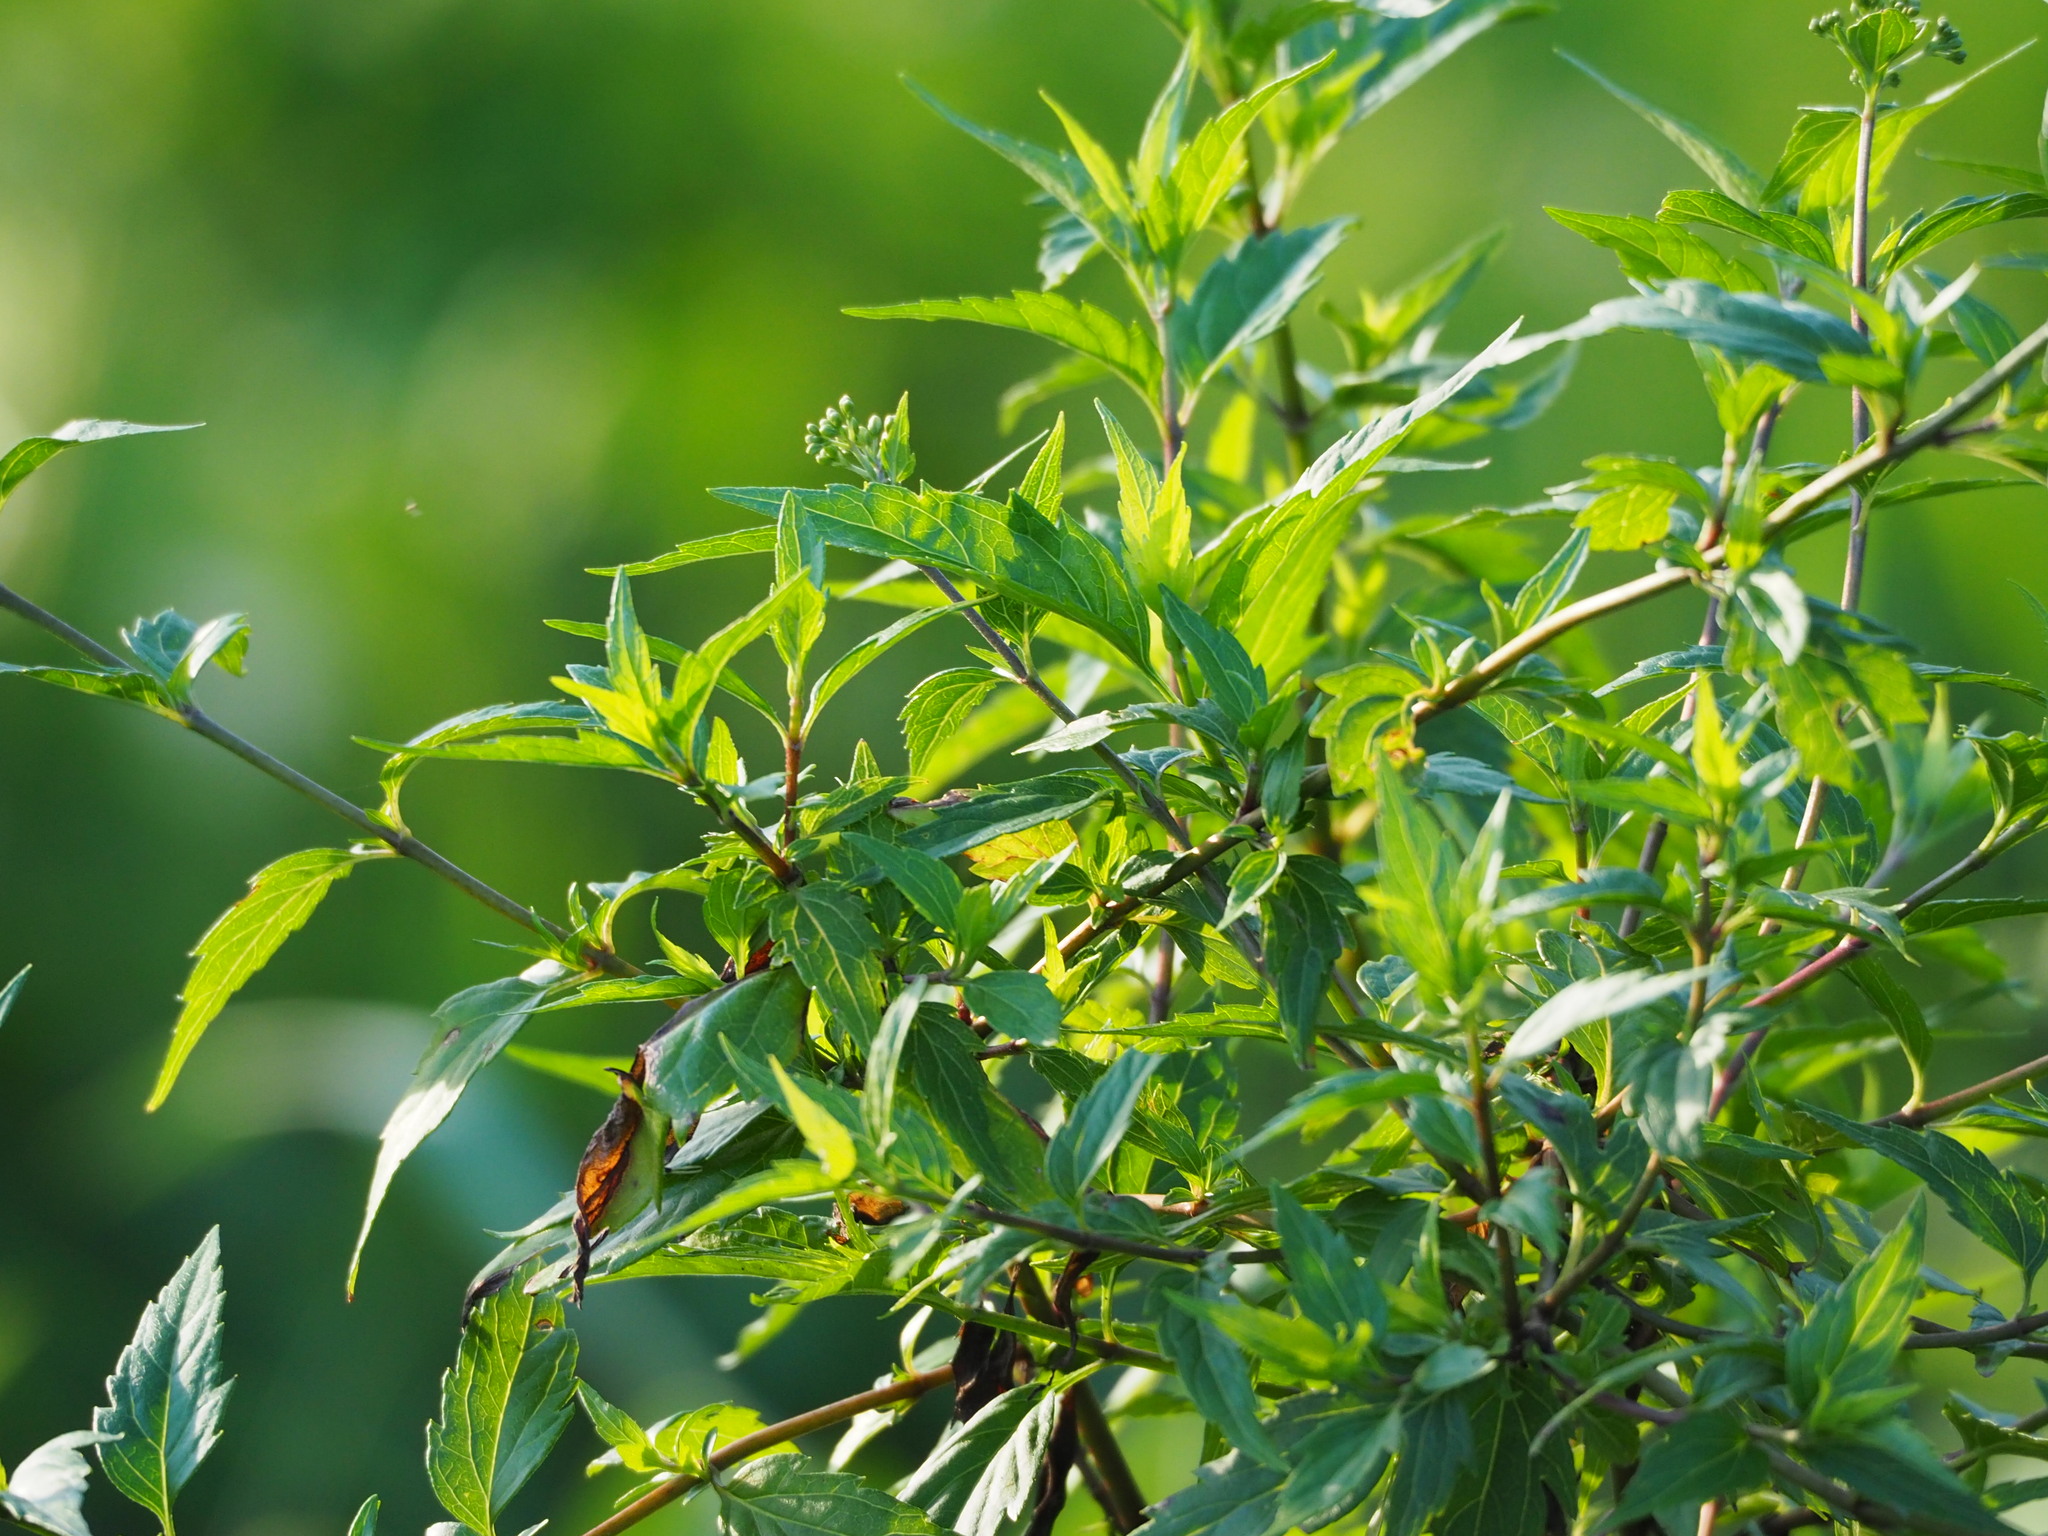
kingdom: Plantae
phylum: Tracheophyta
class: Magnoliopsida
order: Asterales
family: Asteraceae
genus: Eupatorium
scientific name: Eupatorium tashiroi
